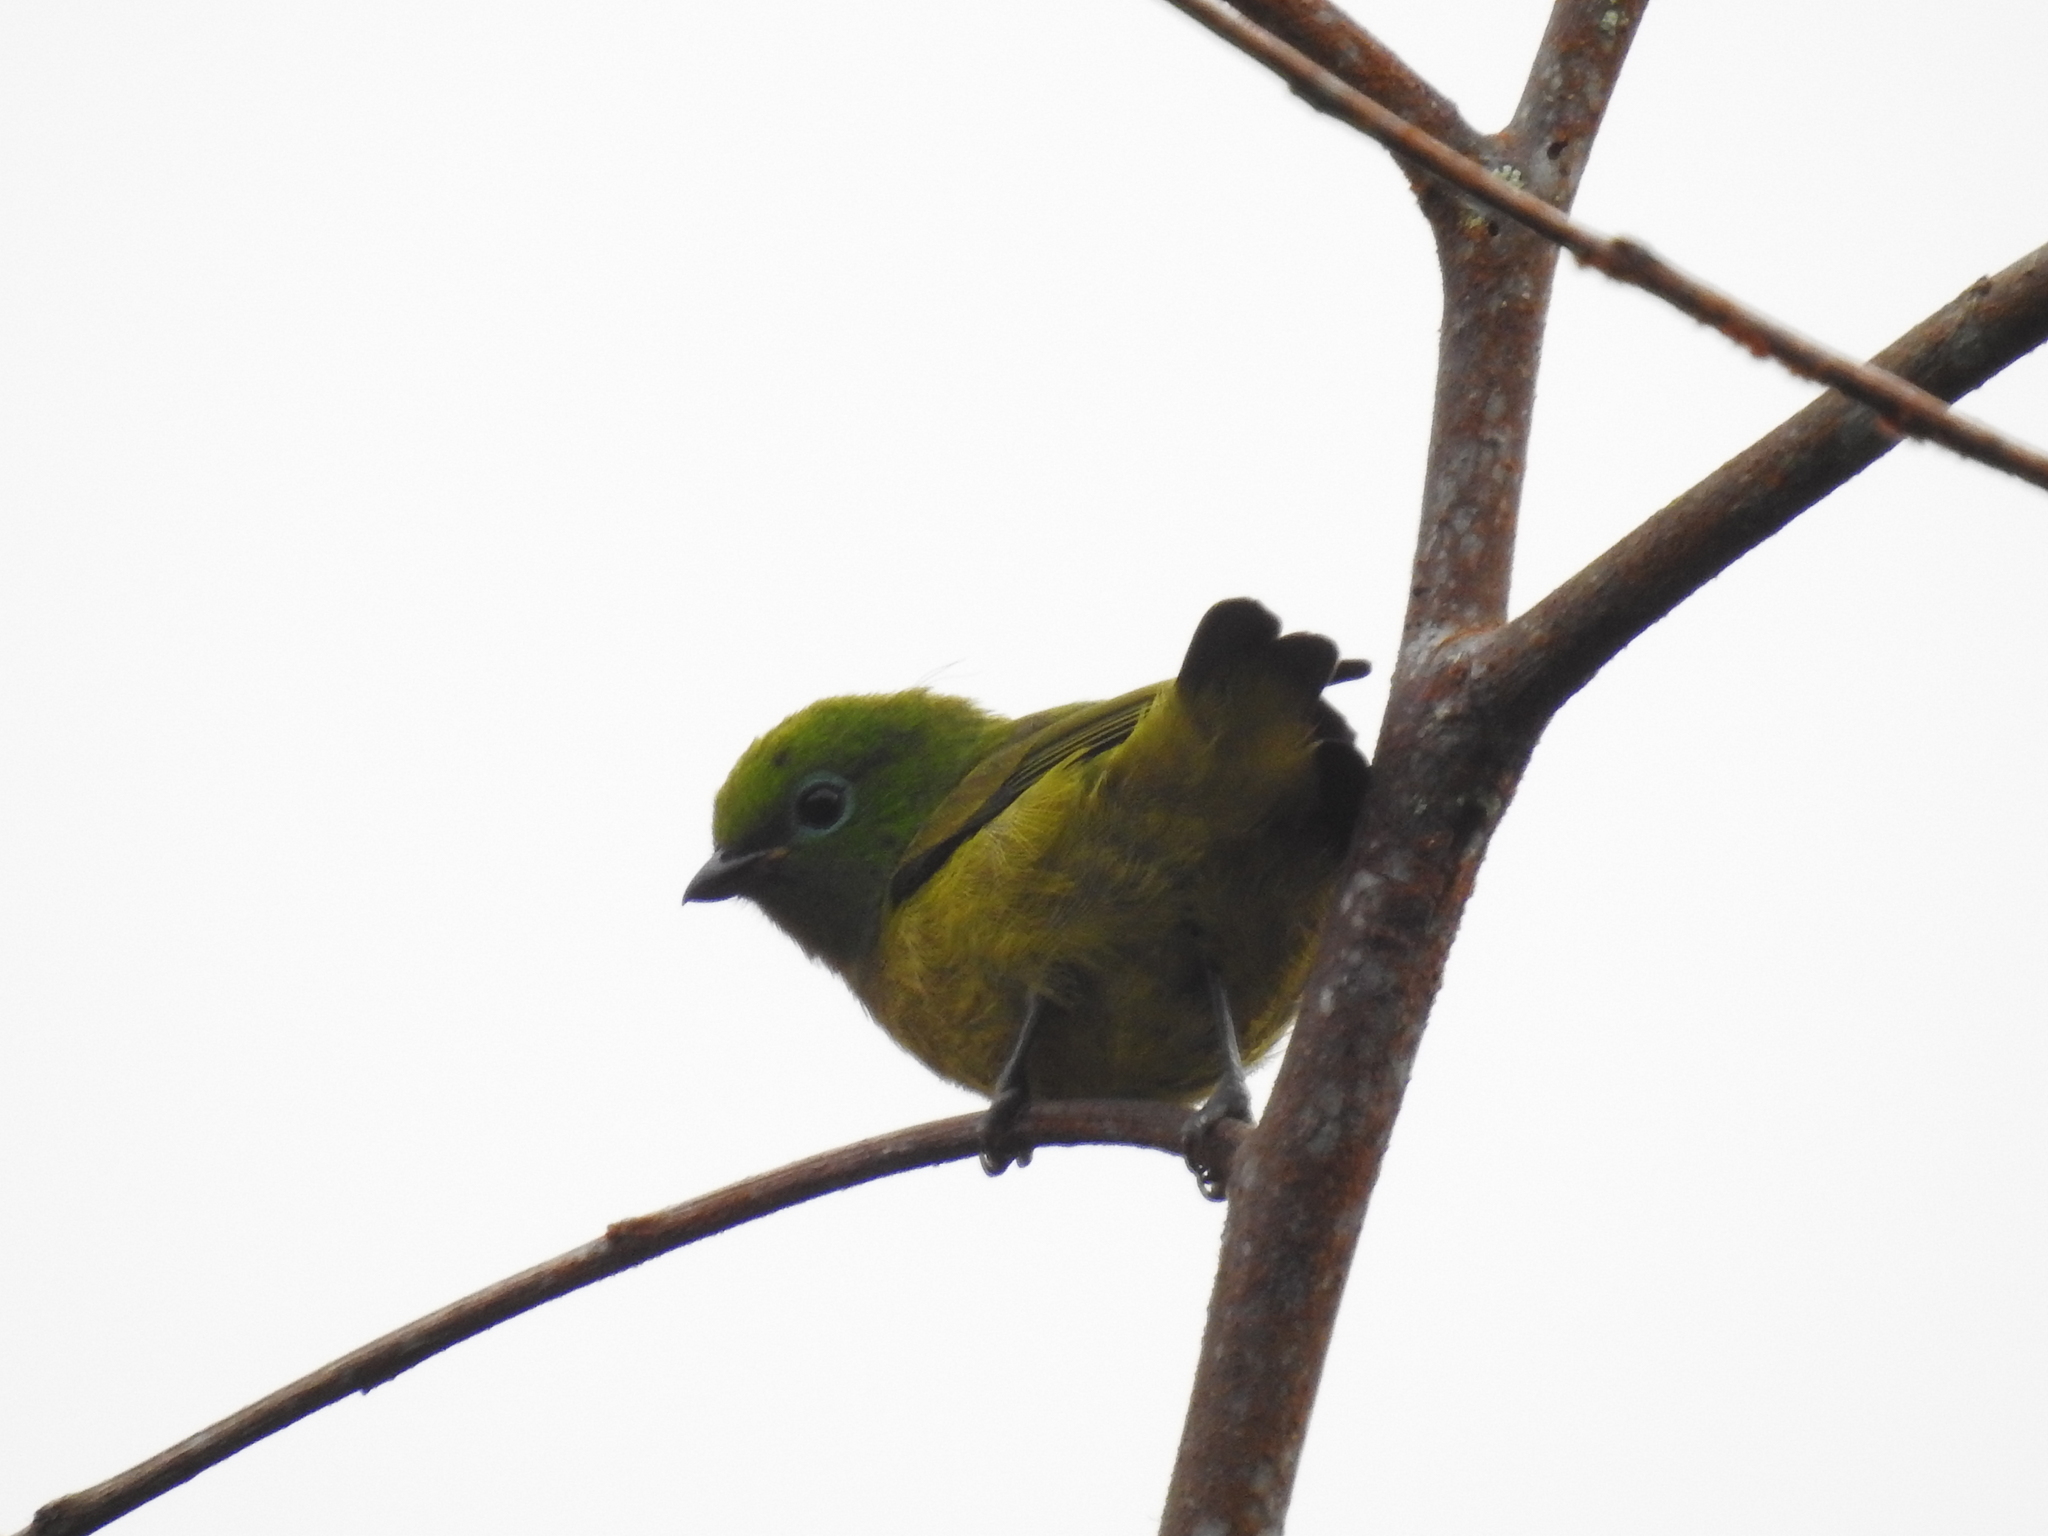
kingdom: Animalia
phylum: Chordata
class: Aves
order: Passeriformes
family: Fringillidae
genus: Chlorophonia
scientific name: Chlorophonia cyanea
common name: Blue-naped chlorophonia
